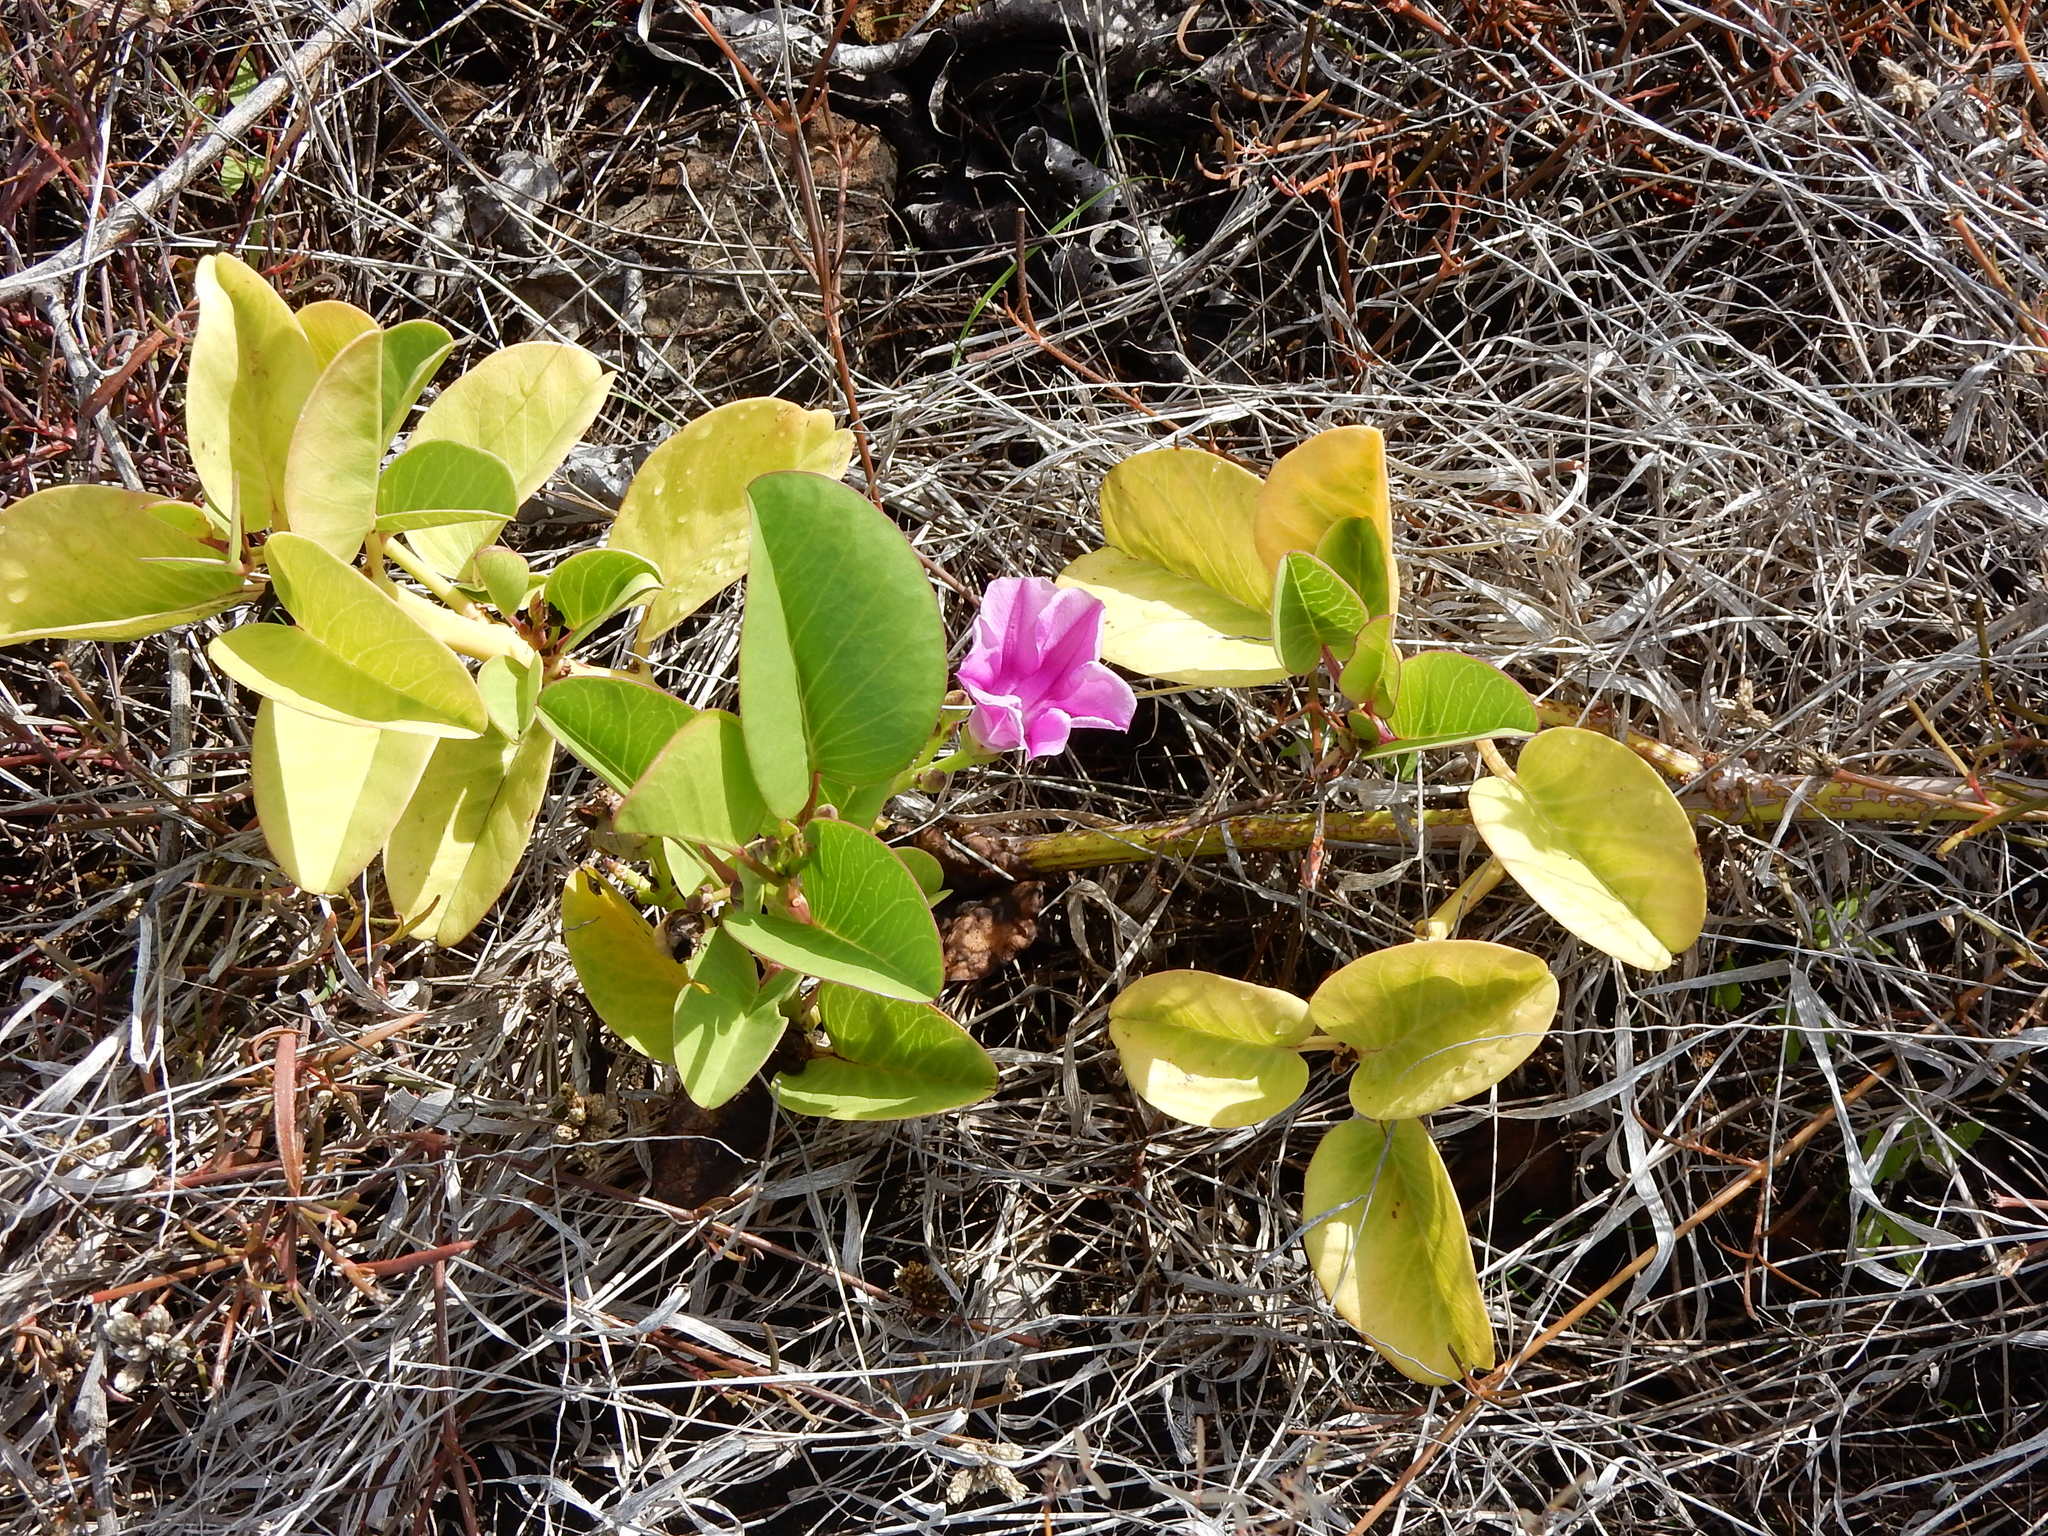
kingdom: Plantae
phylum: Tracheophyta
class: Magnoliopsida
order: Solanales
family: Convolvulaceae
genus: Ipomoea
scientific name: Ipomoea pes-caprae
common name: Beach morning glory
